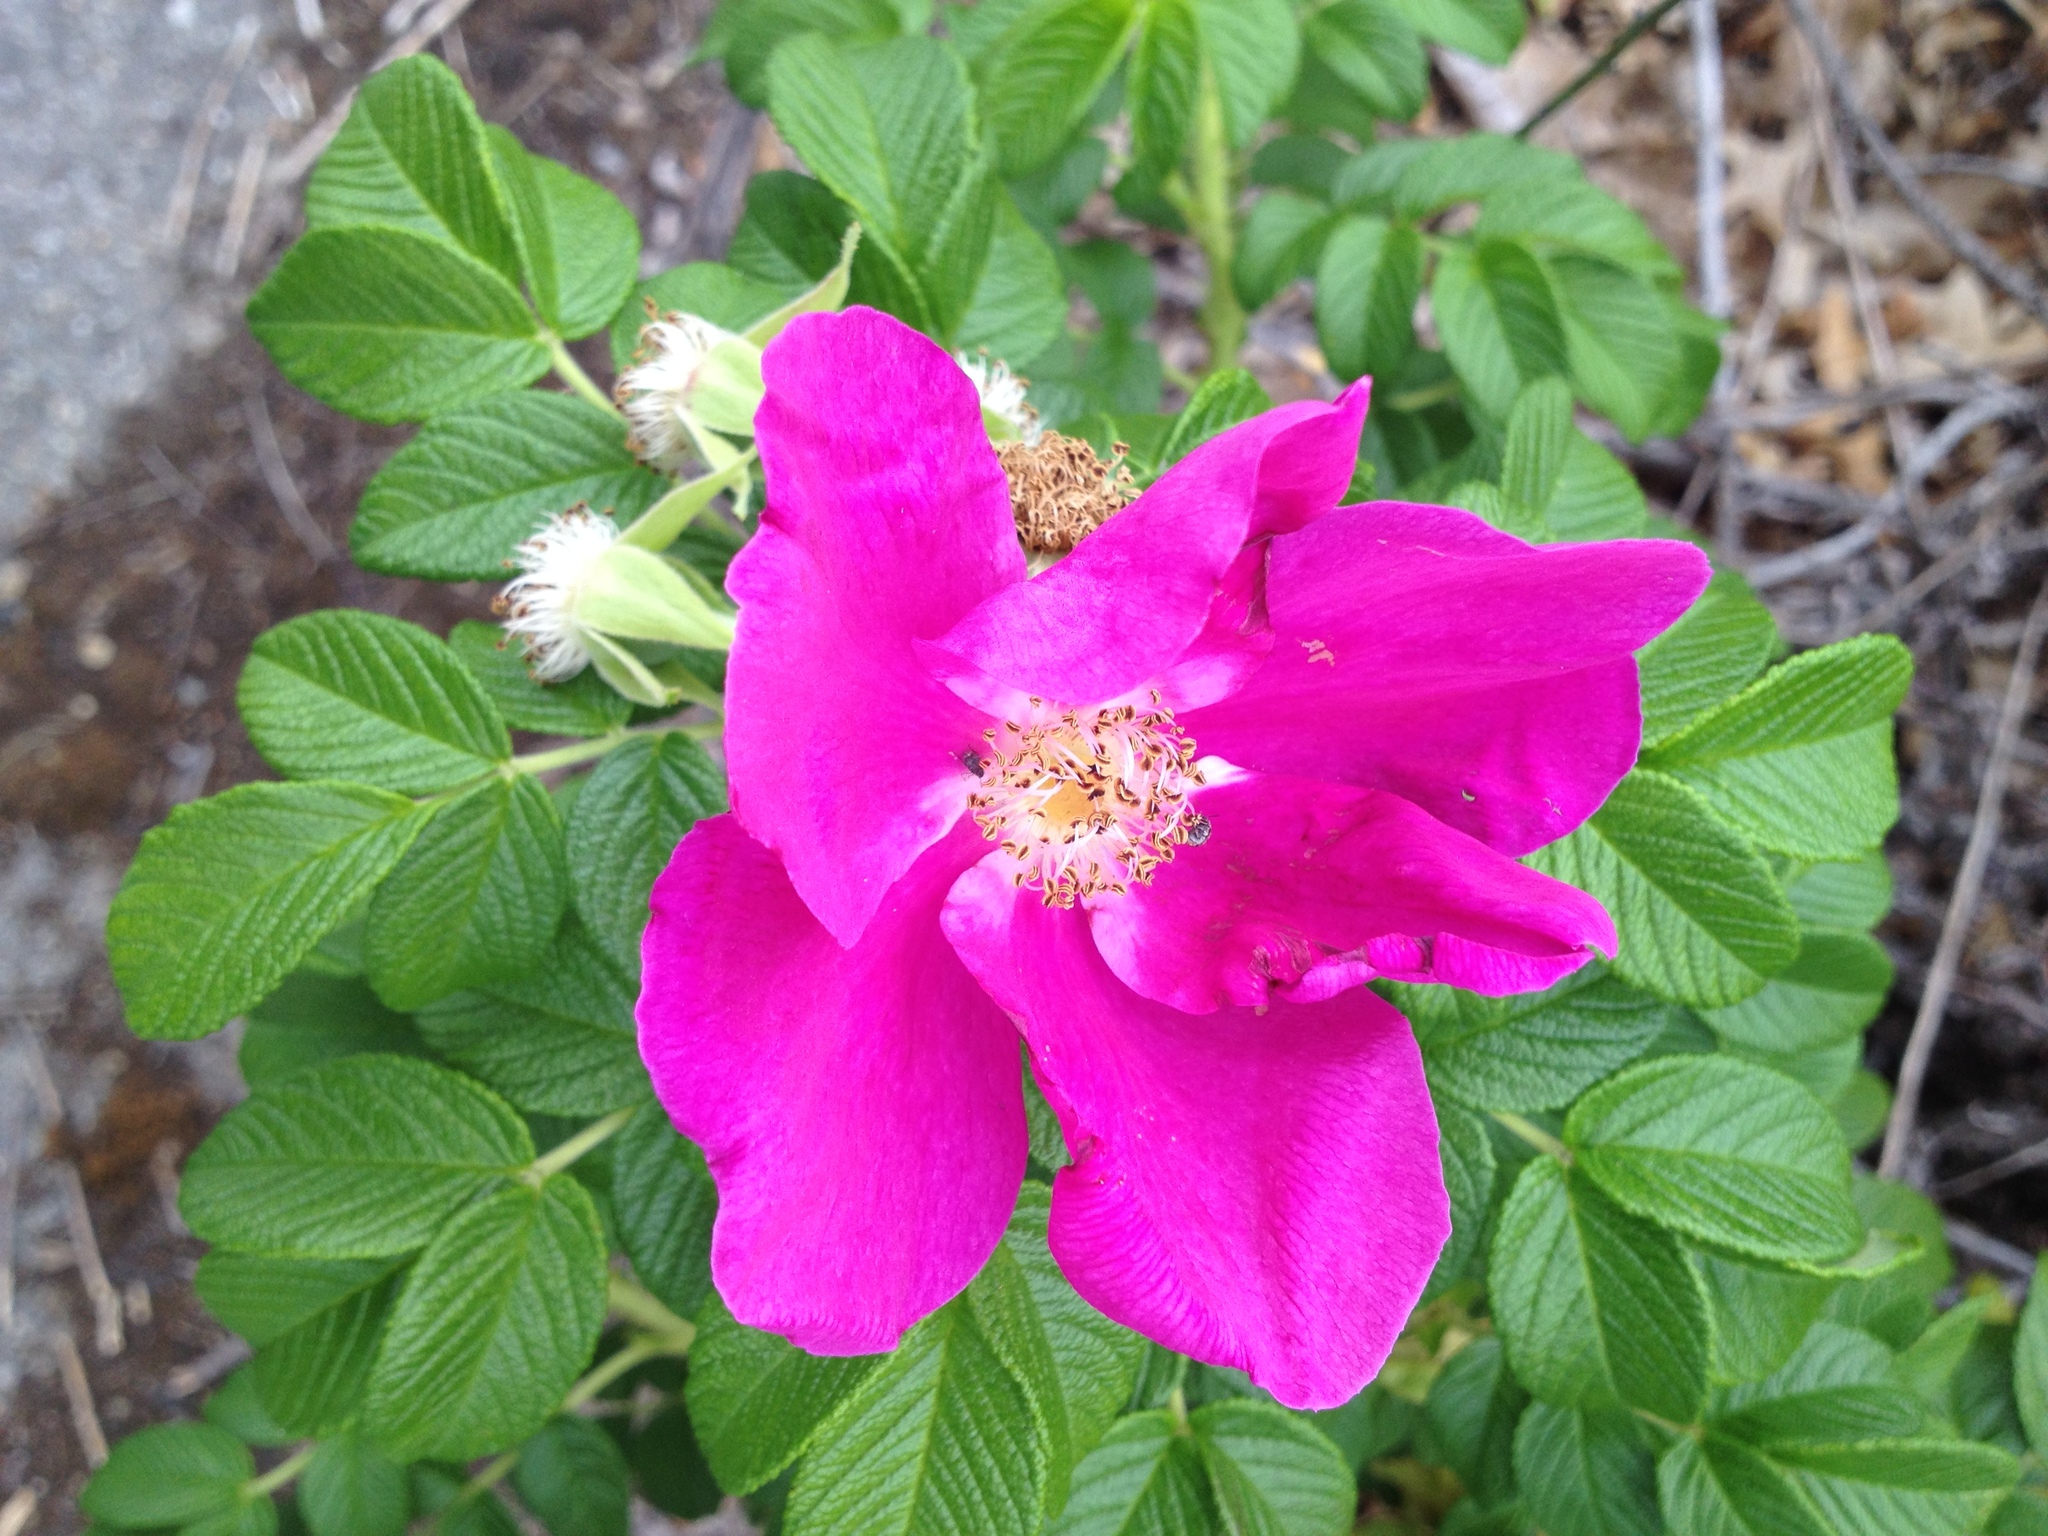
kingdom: Plantae
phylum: Tracheophyta
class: Magnoliopsida
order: Rosales
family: Rosaceae
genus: Rosa
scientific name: Rosa rugosa
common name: Japanese rose
